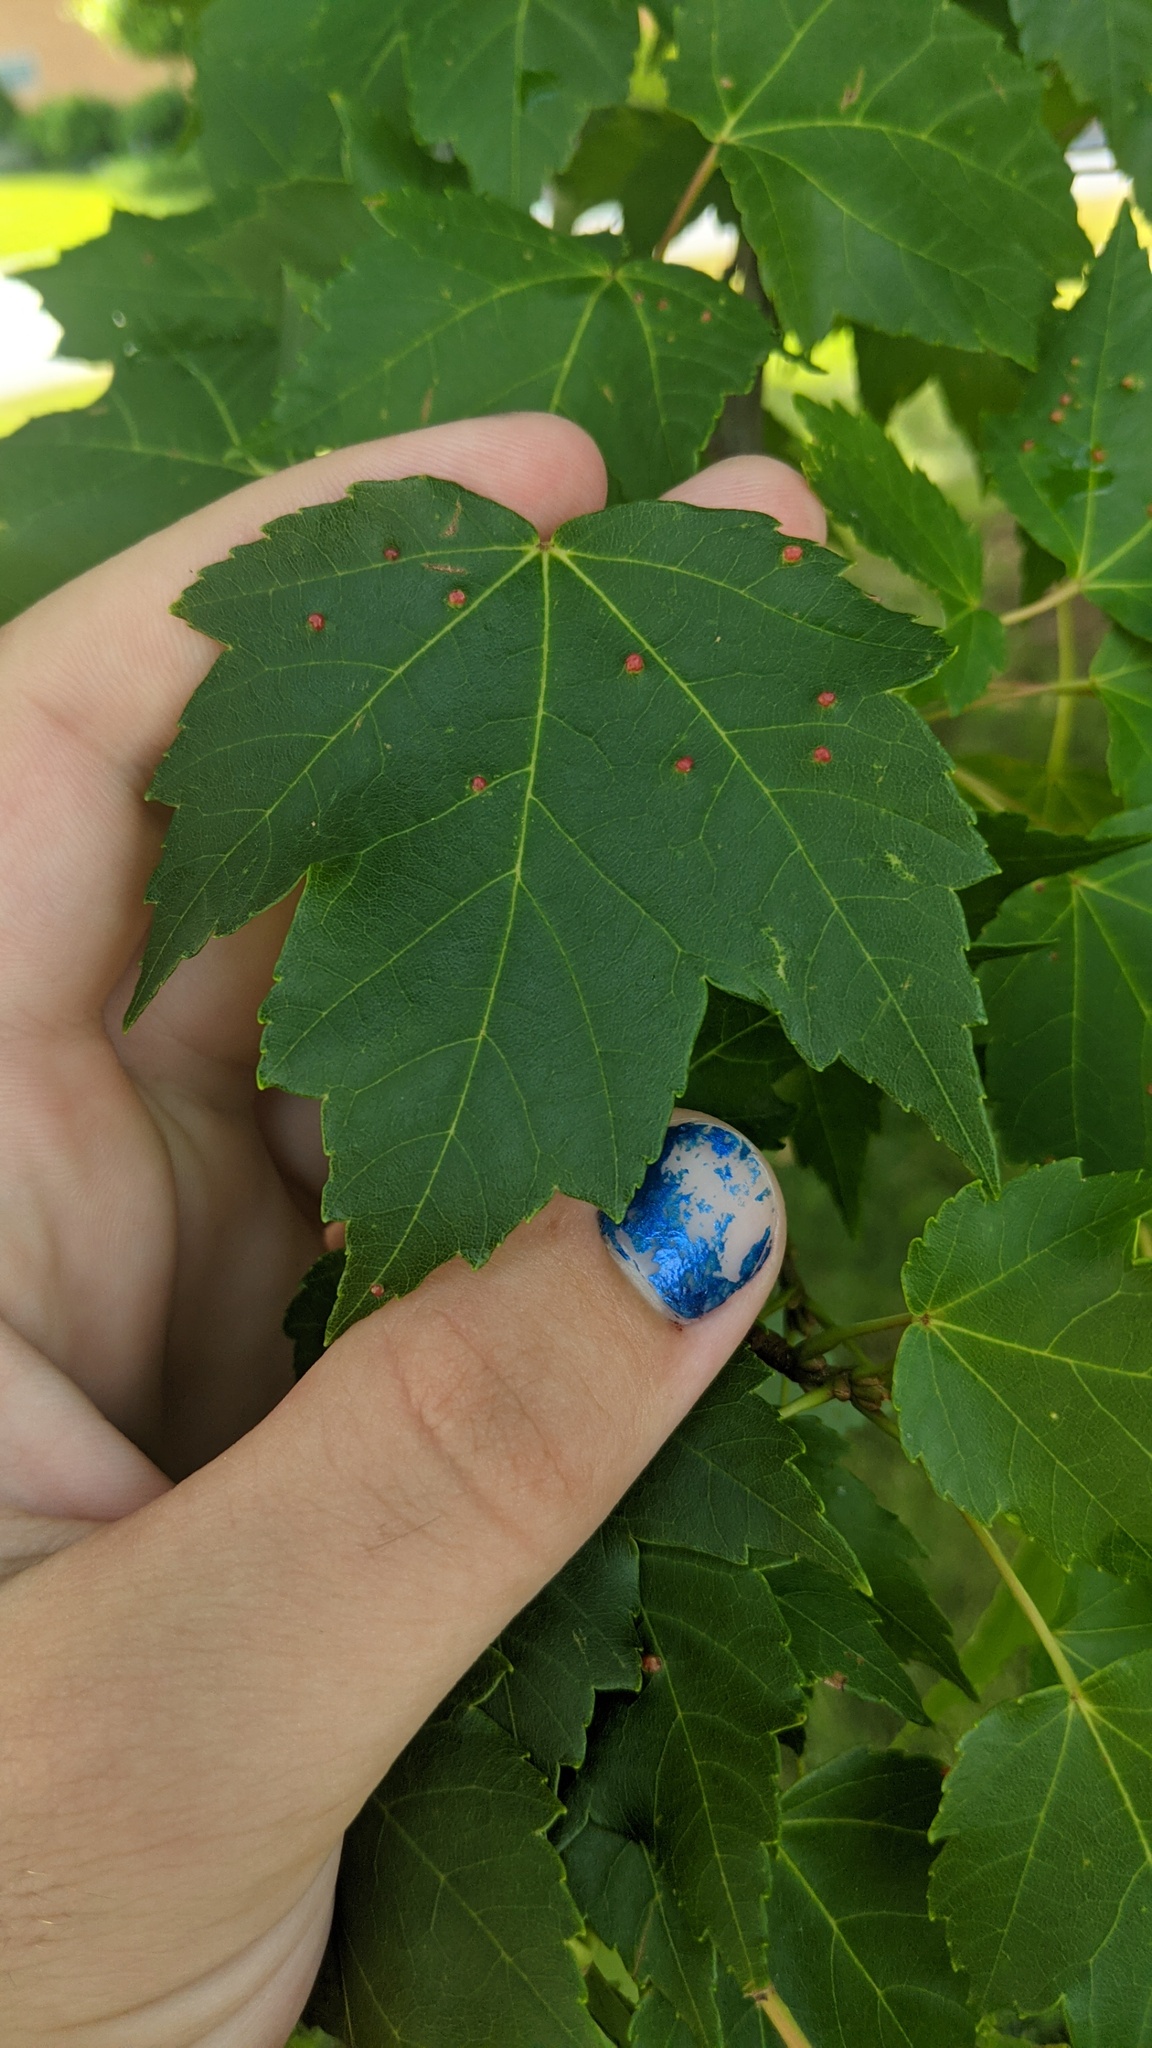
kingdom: Plantae
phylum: Tracheophyta
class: Magnoliopsida
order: Sapindales
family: Sapindaceae
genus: Acer
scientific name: Acer rubrum
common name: Red maple
